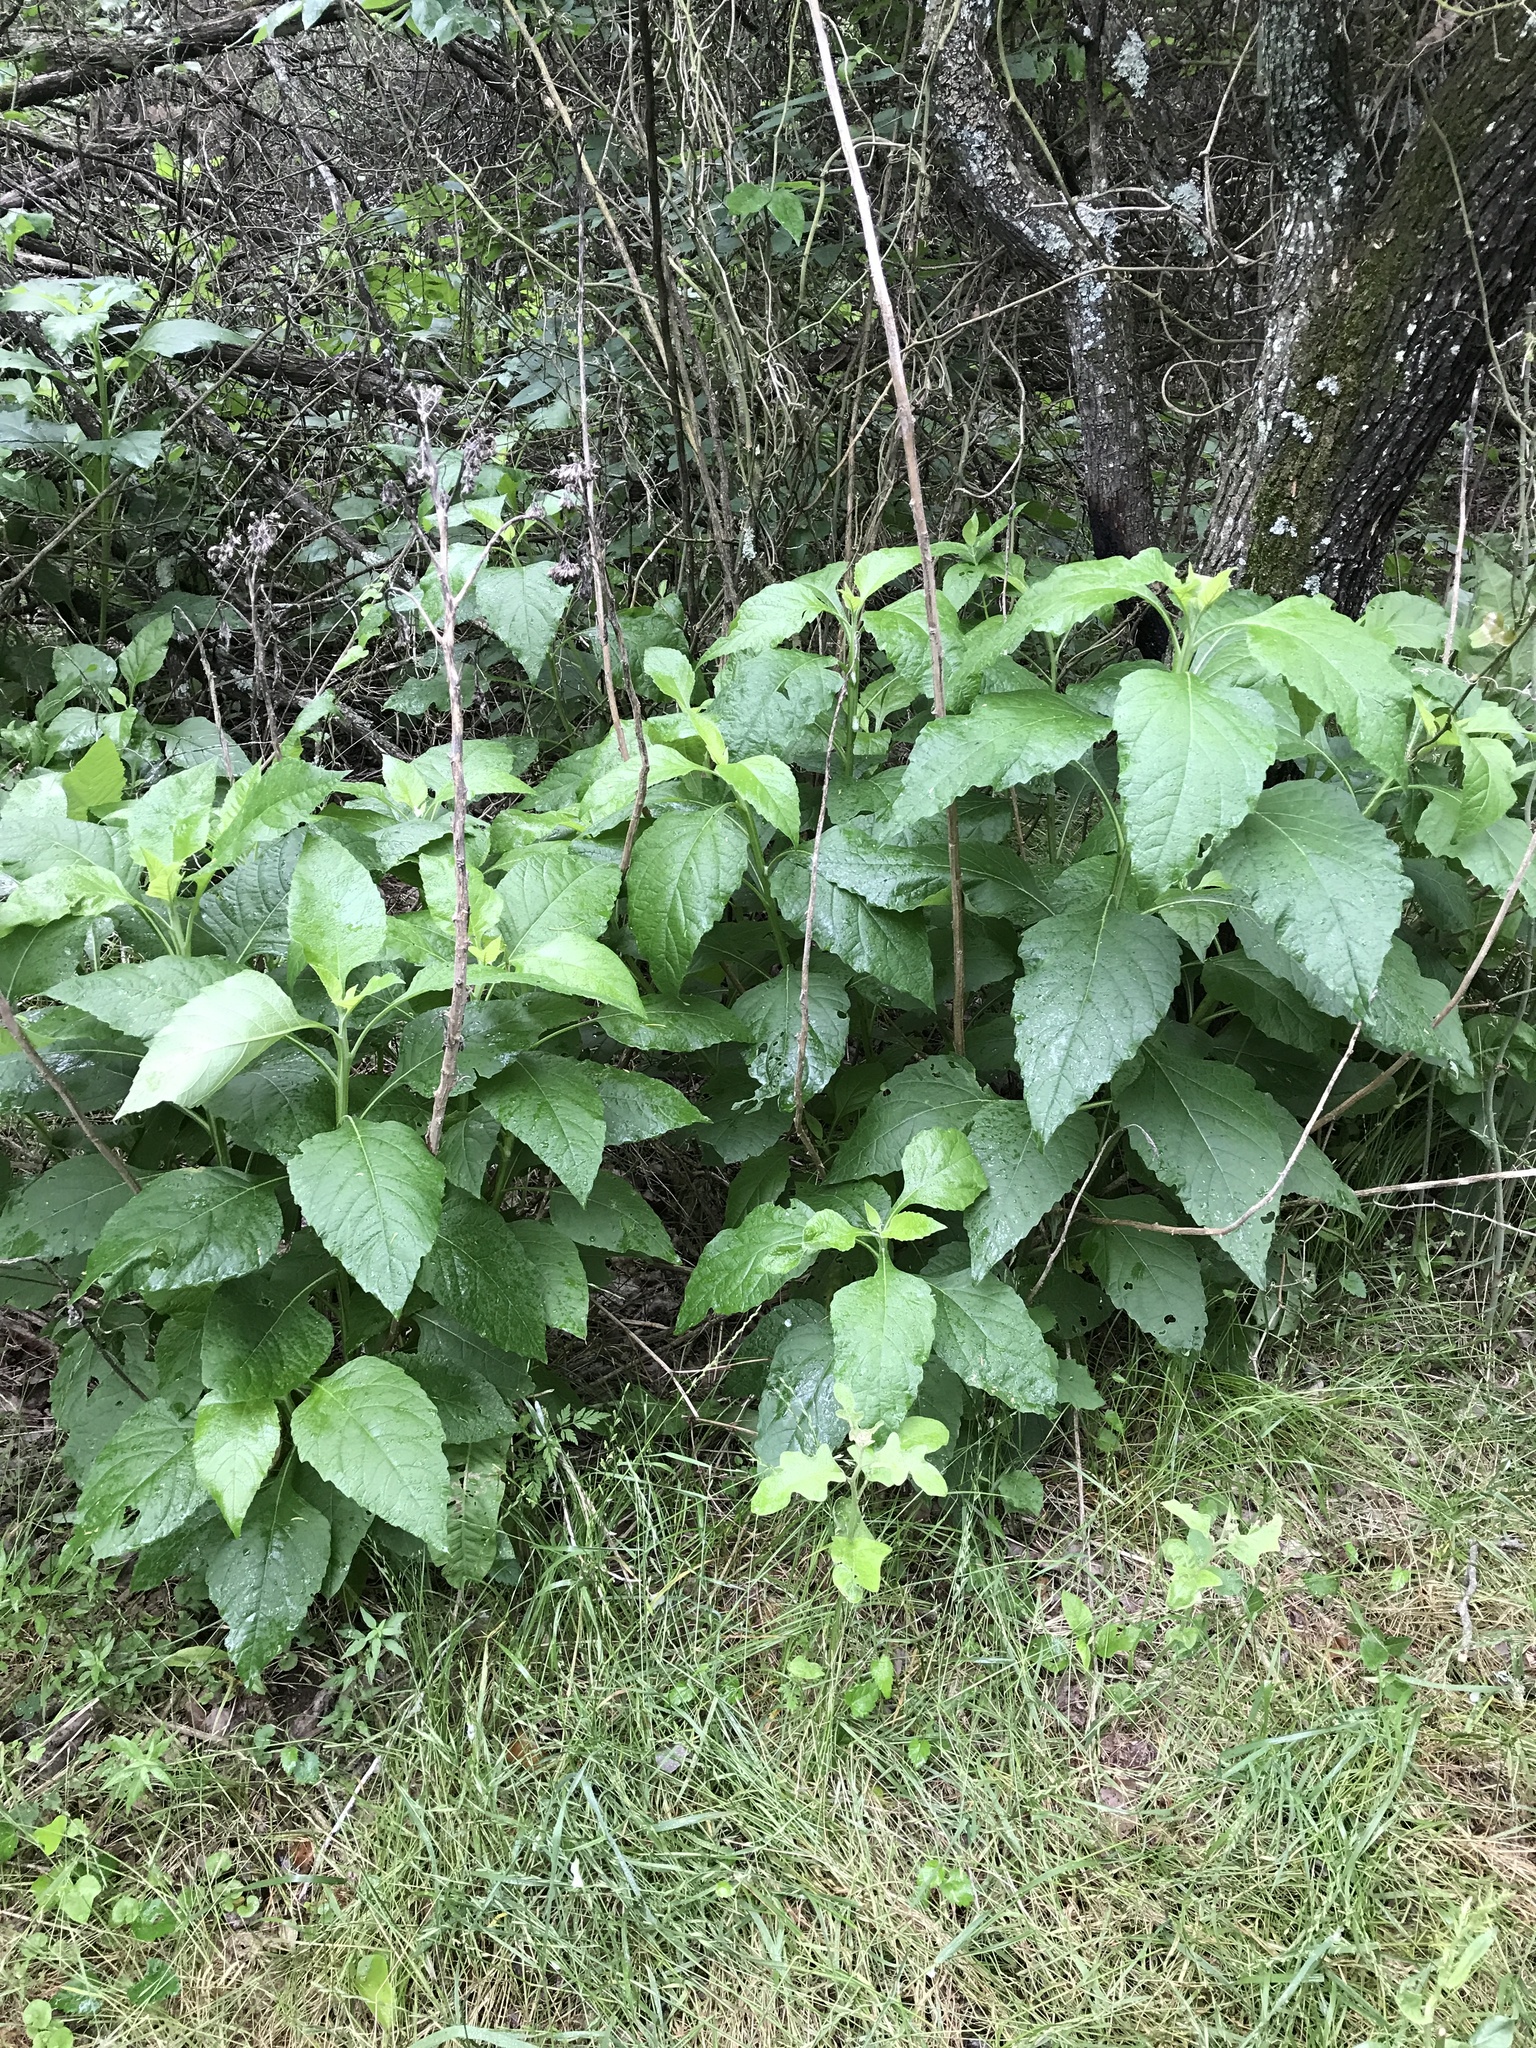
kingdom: Plantae
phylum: Tracheophyta
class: Magnoliopsida
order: Asterales
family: Asteraceae
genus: Verbesina
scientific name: Verbesina virginica
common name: Frostweed
